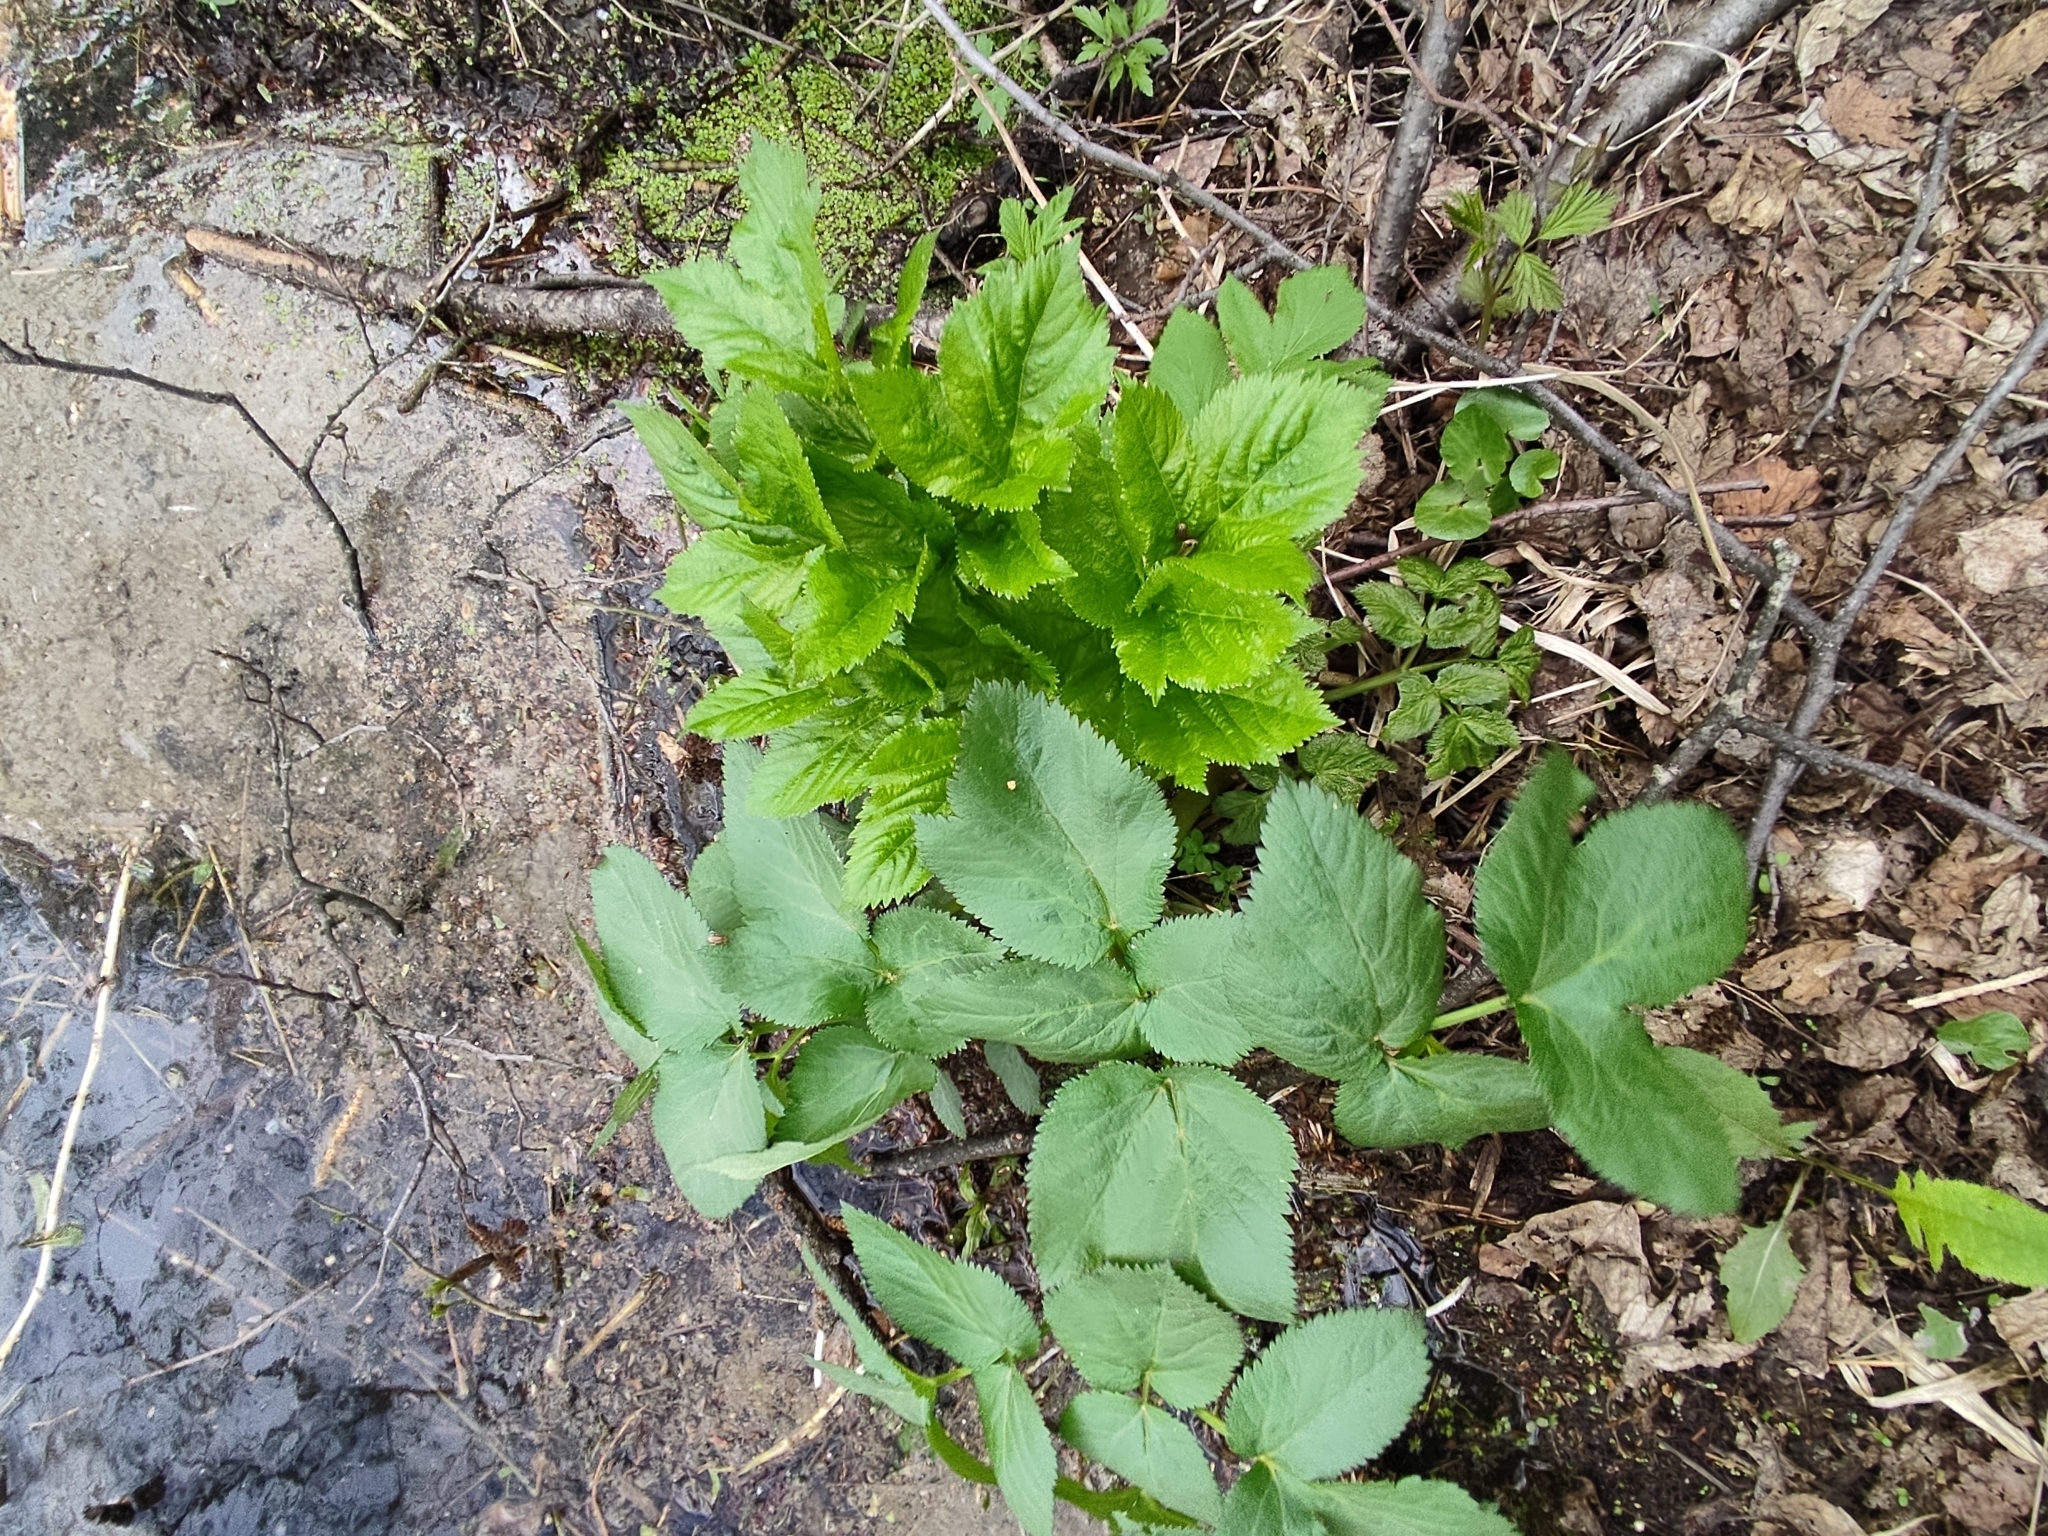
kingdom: Plantae
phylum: Tracheophyta
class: Magnoliopsida
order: Apiales
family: Apiaceae
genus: Angelica
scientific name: Angelica archangelica
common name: Garden angelica
